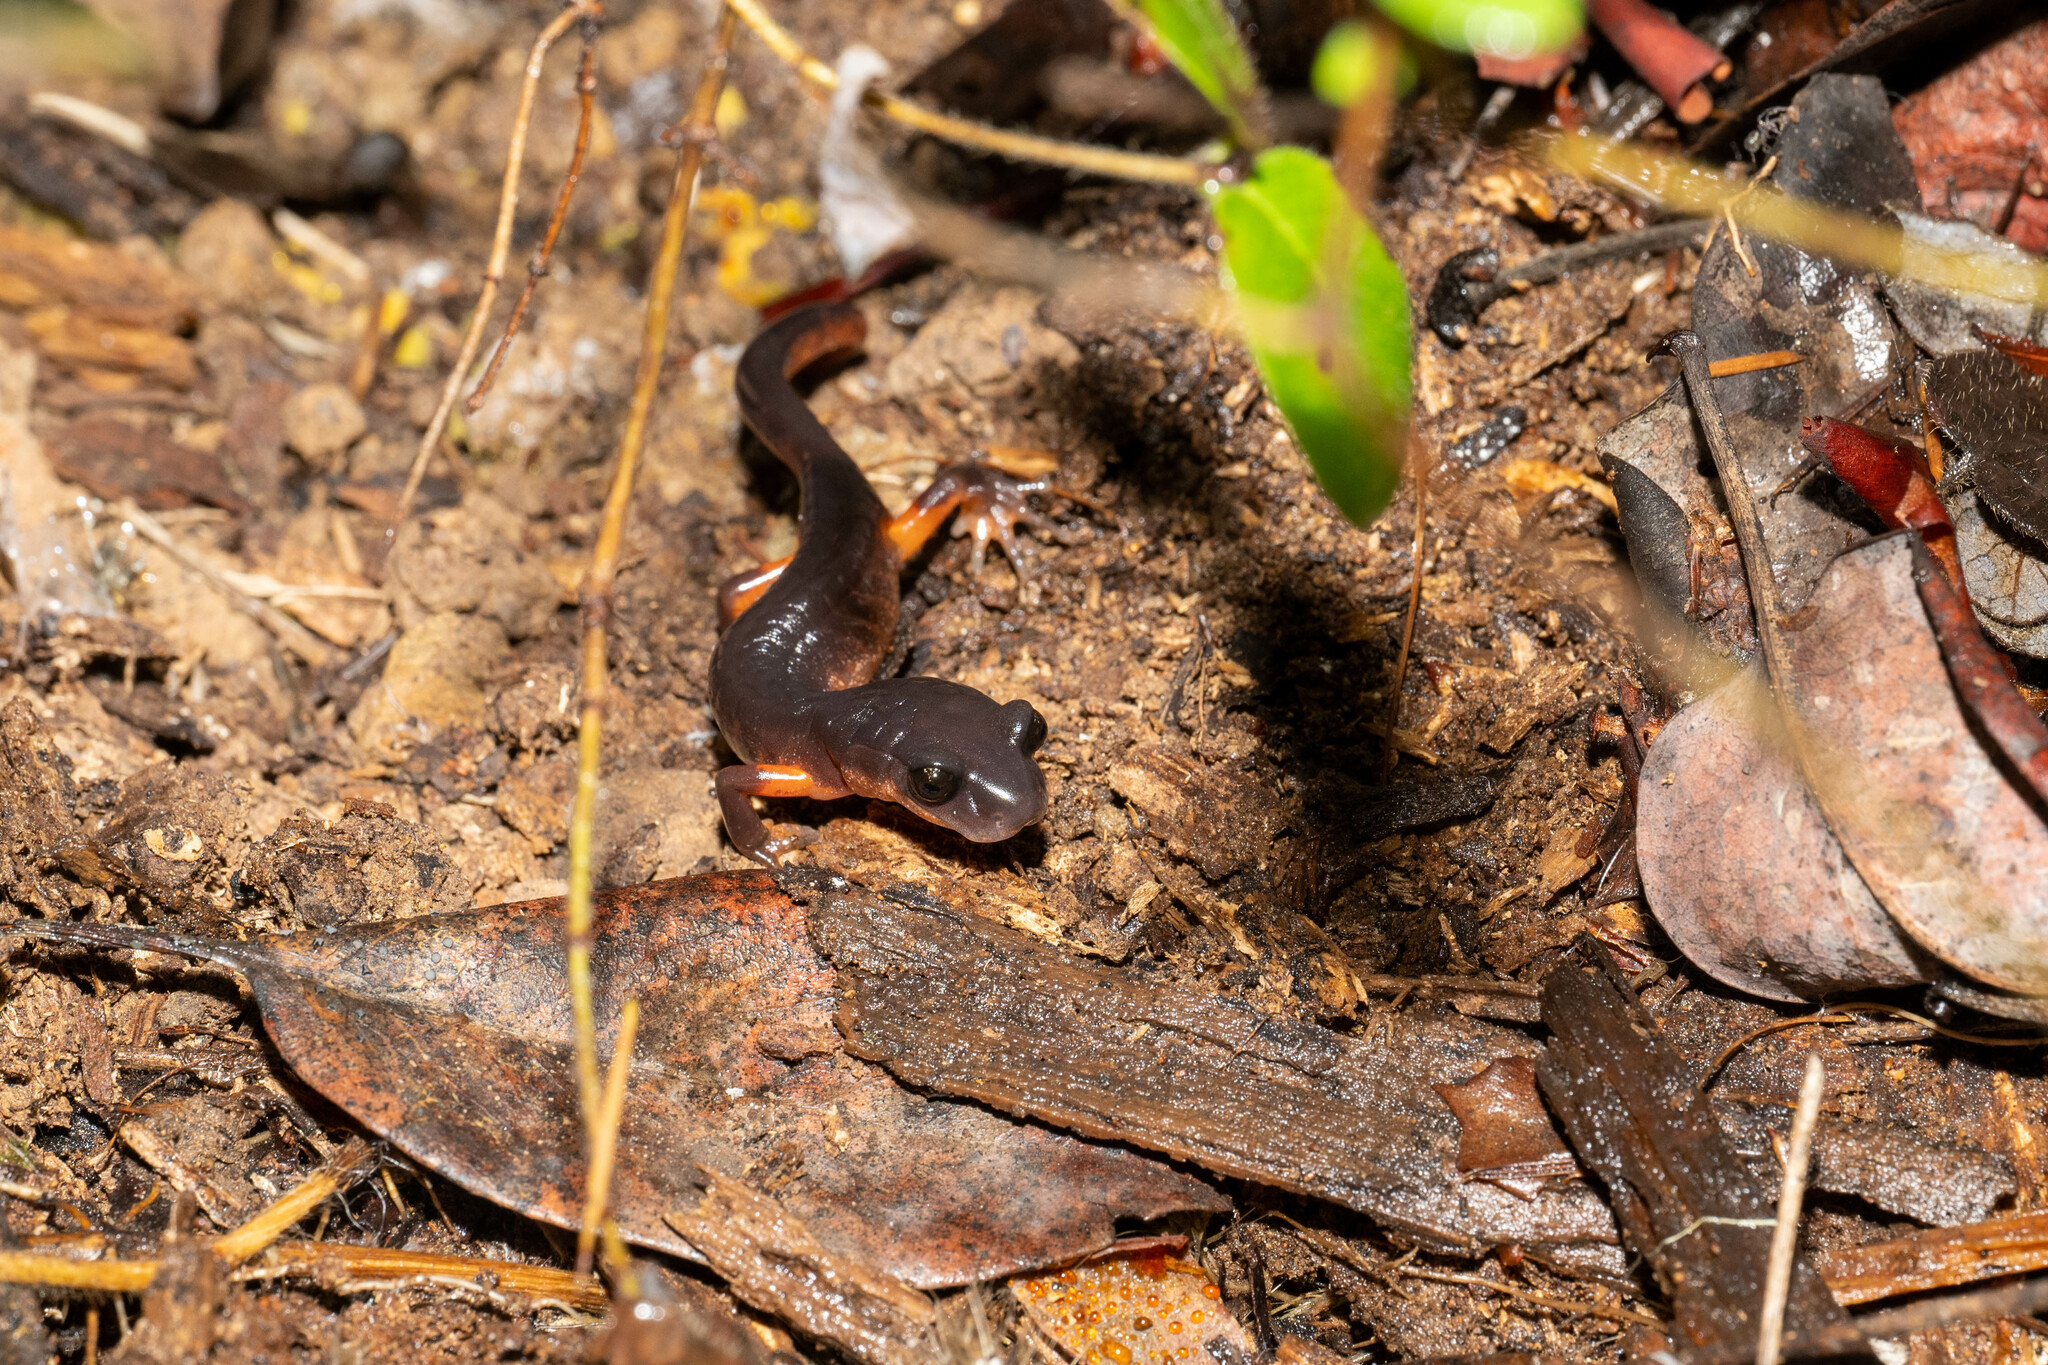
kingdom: Animalia
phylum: Chordata
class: Amphibia
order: Caudata
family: Plethodontidae
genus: Ensatina
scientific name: Ensatina eschscholtzii
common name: Ensatina
